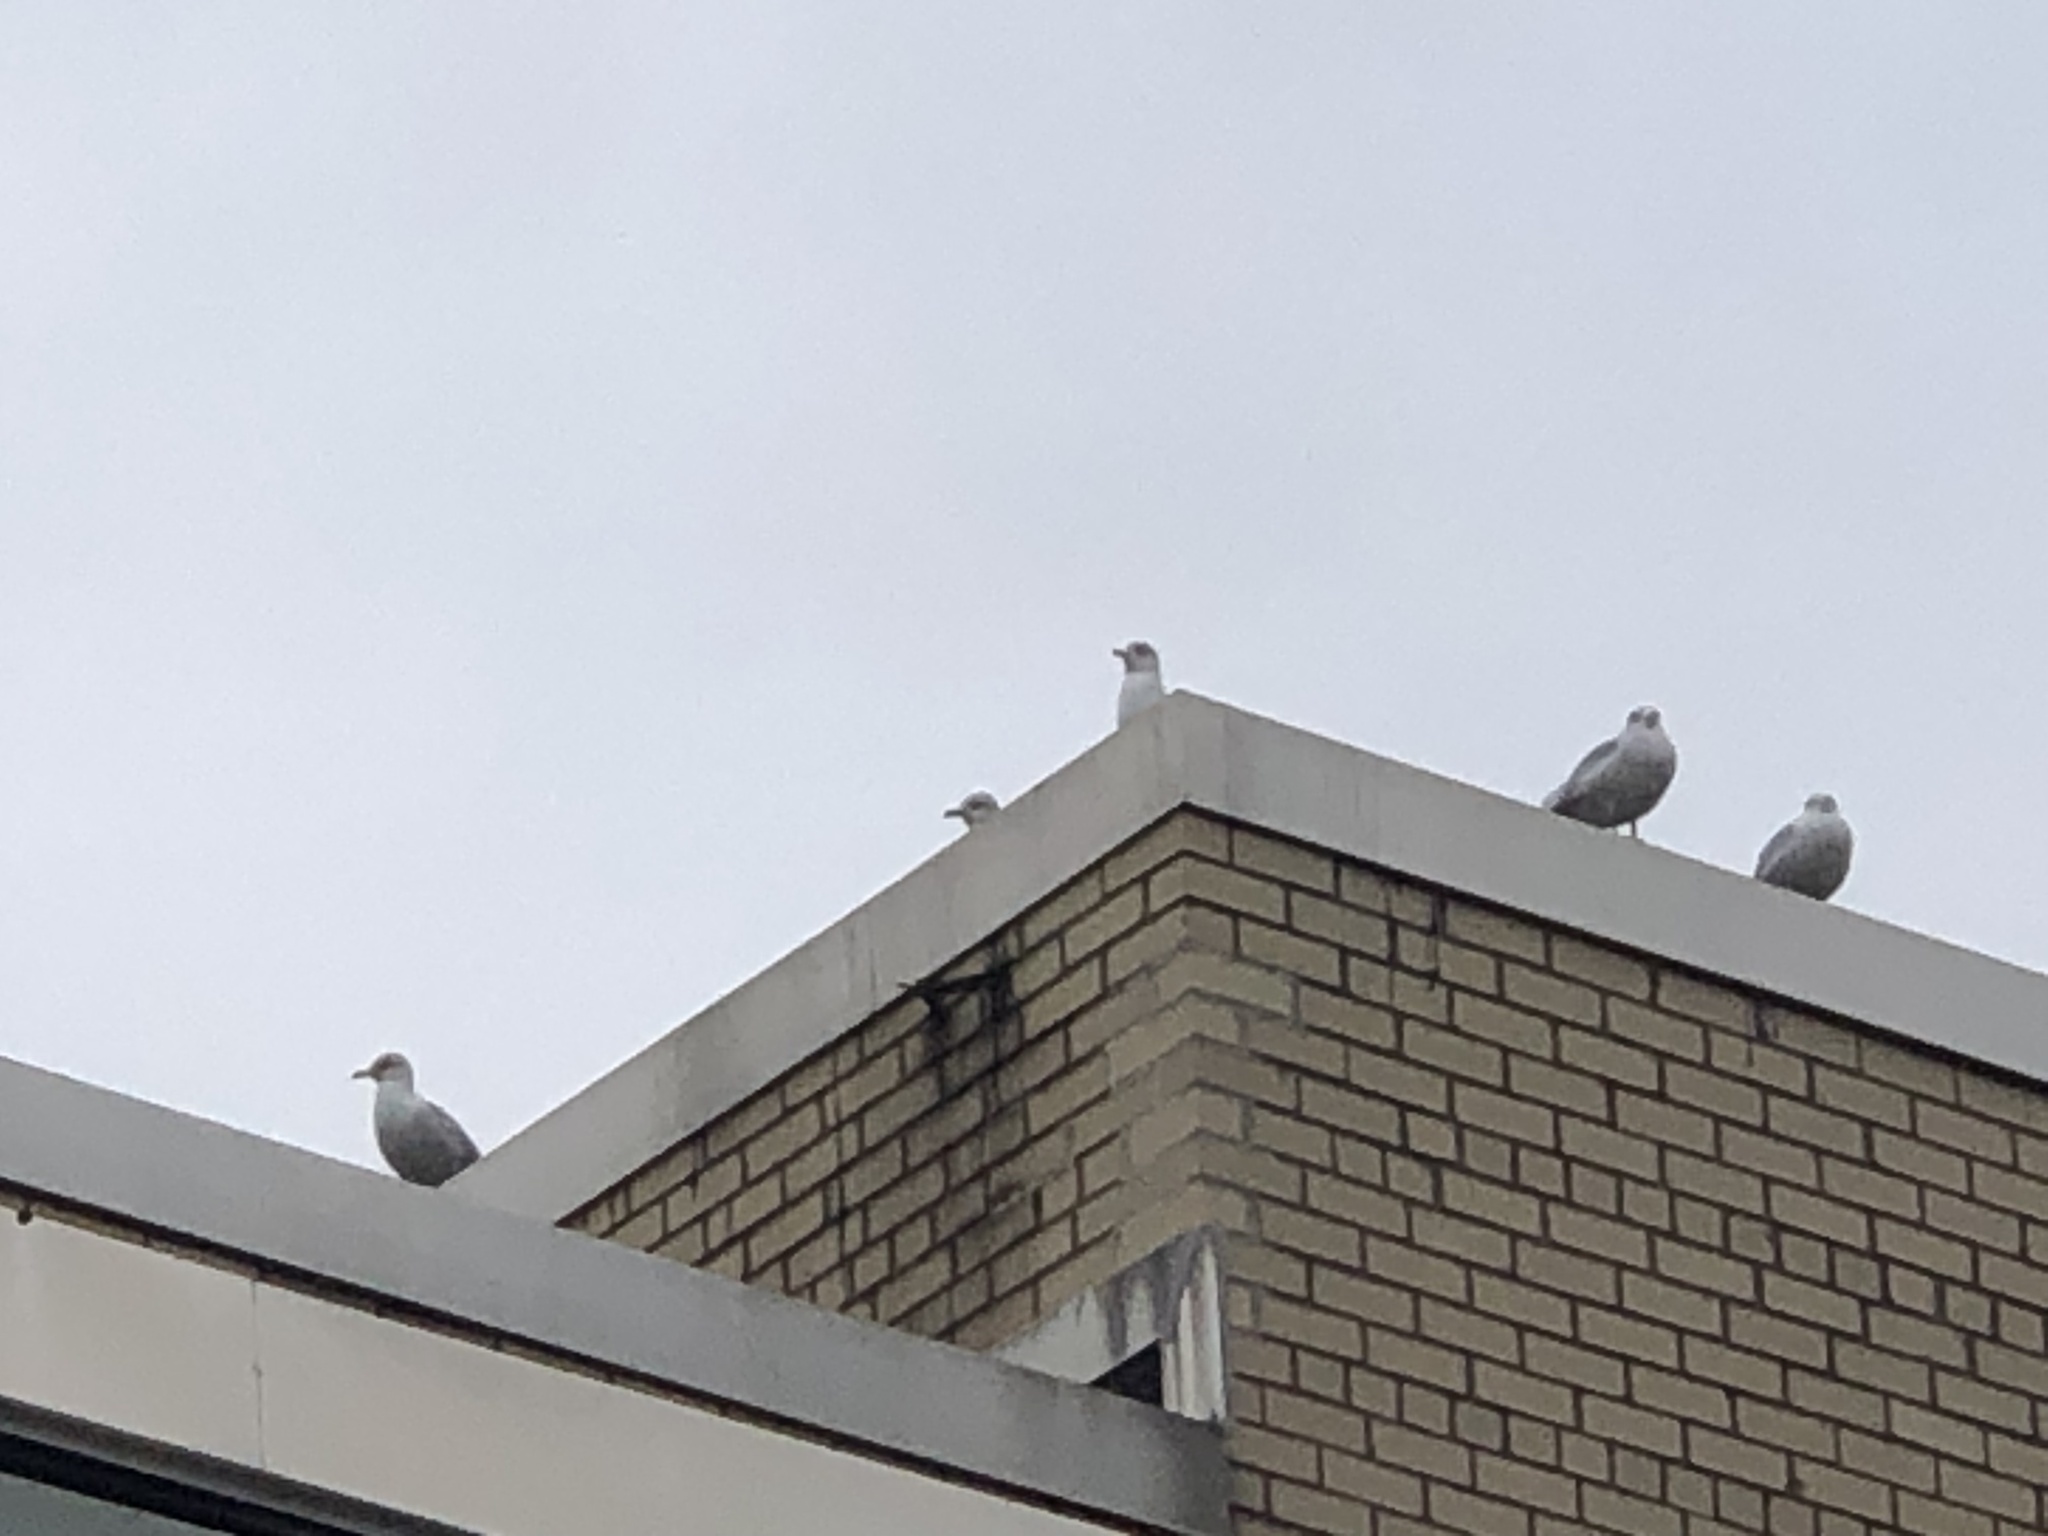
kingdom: Animalia
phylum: Chordata
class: Aves
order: Charadriiformes
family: Laridae
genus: Larus
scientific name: Larus argentatus
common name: Herring gull
